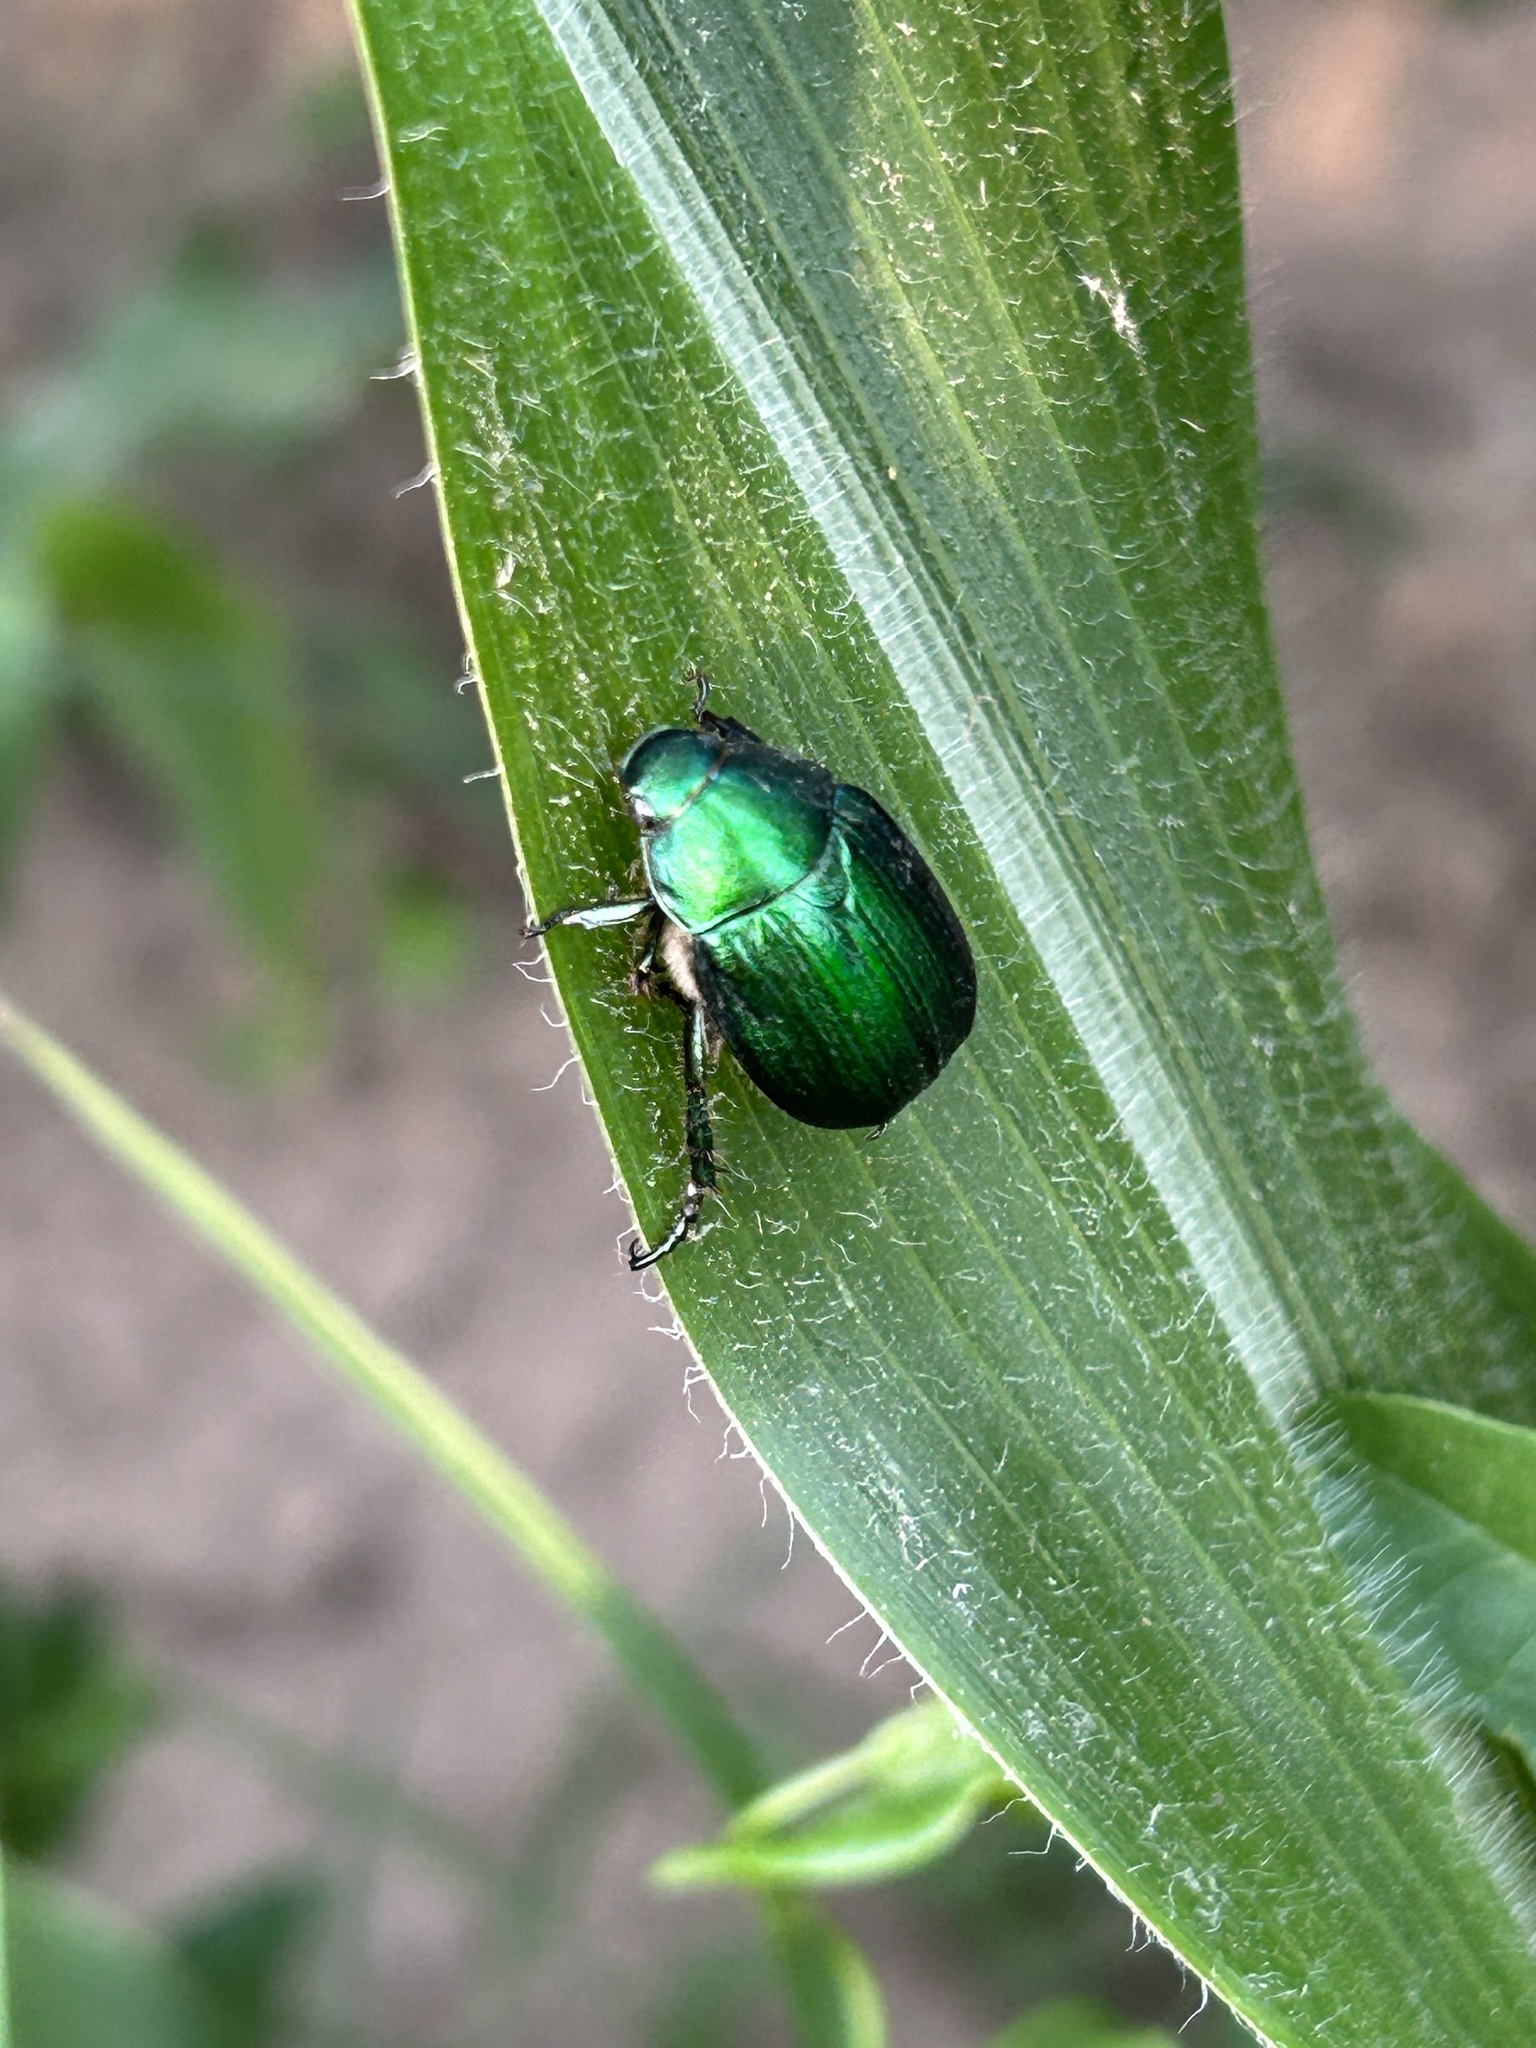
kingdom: Animalia
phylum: Arthropoda
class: Insecta
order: Coleoptera
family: Scarabaeidae
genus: Anomala
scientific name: Anomala vitis
